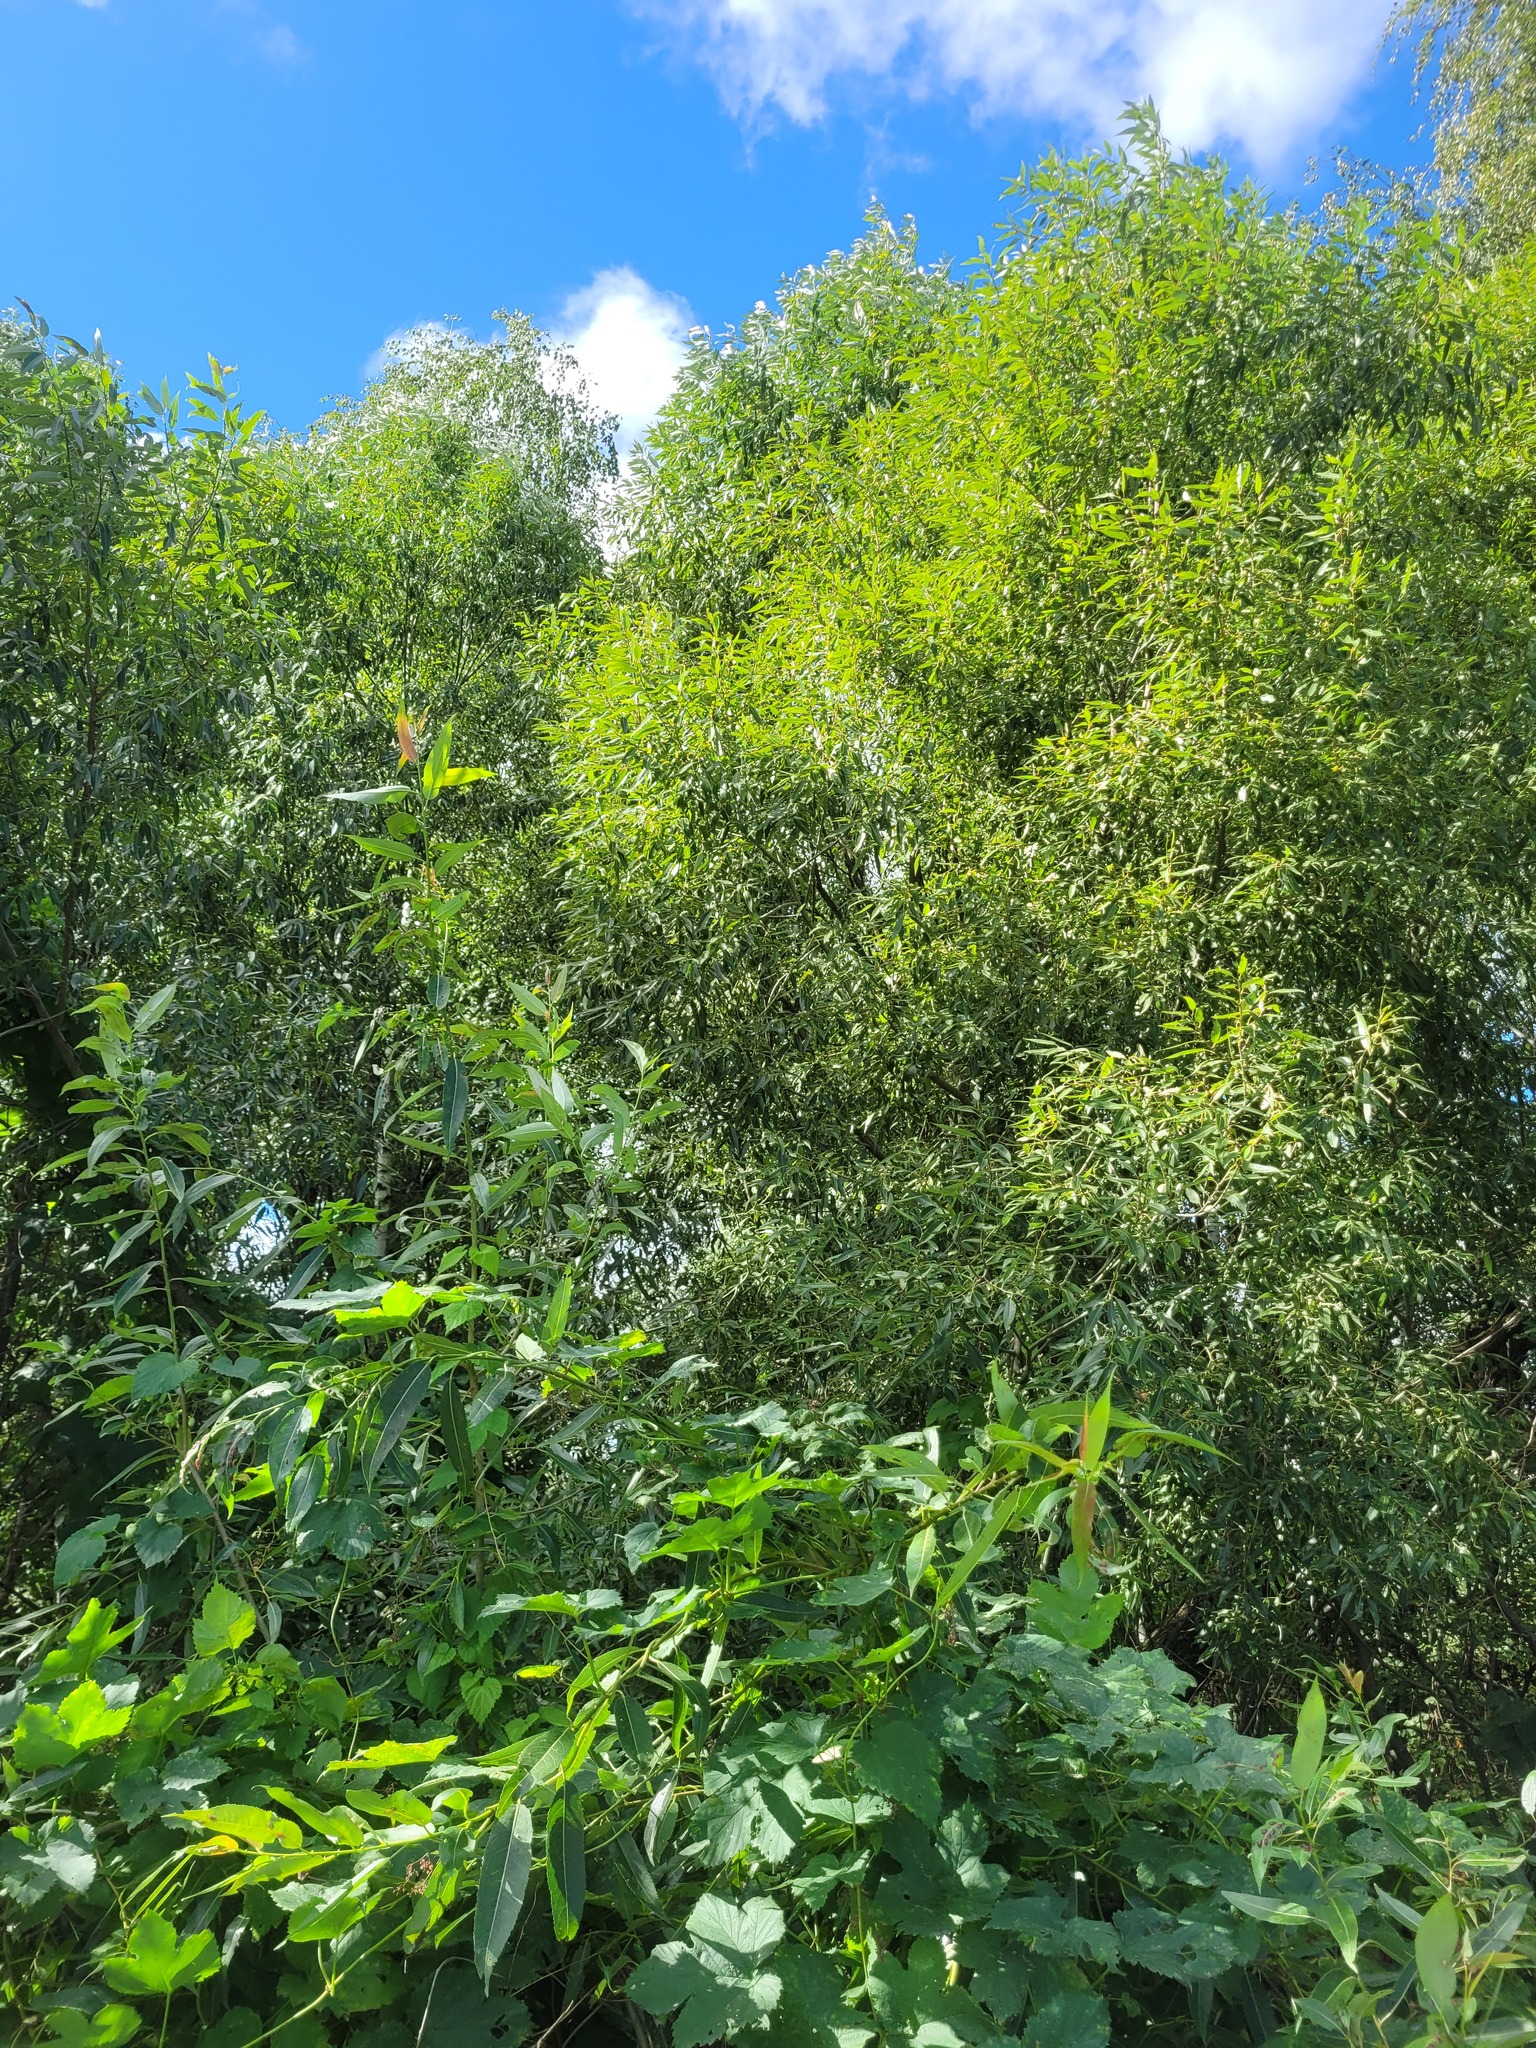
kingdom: Plantae
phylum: Tracheophyta
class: Magnoliopsida
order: Malpighiales
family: Salicaceae
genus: Salix
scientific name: Salix triandra
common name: Almond willow
